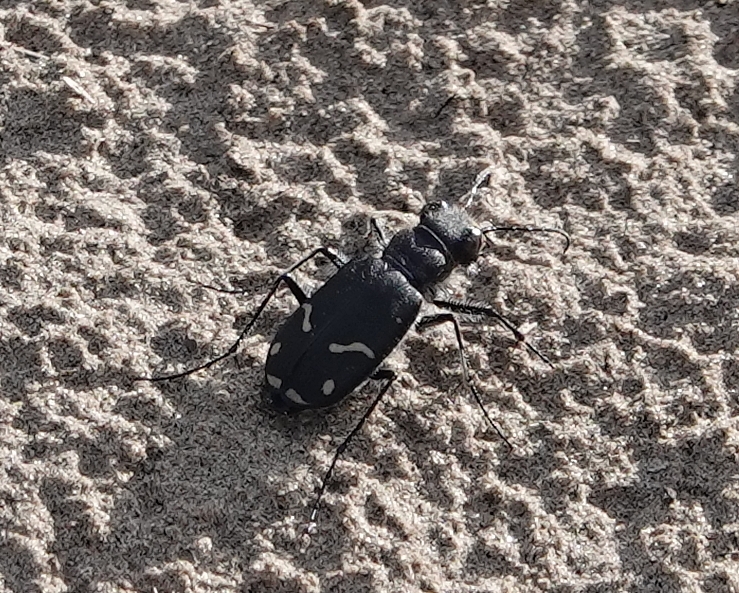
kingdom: Animalia
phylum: Arthropoda
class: Insecta
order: Coleoptera
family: Carabidae
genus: Cicindela
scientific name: Cicindela purpurea
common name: Cow path tiger beetle
